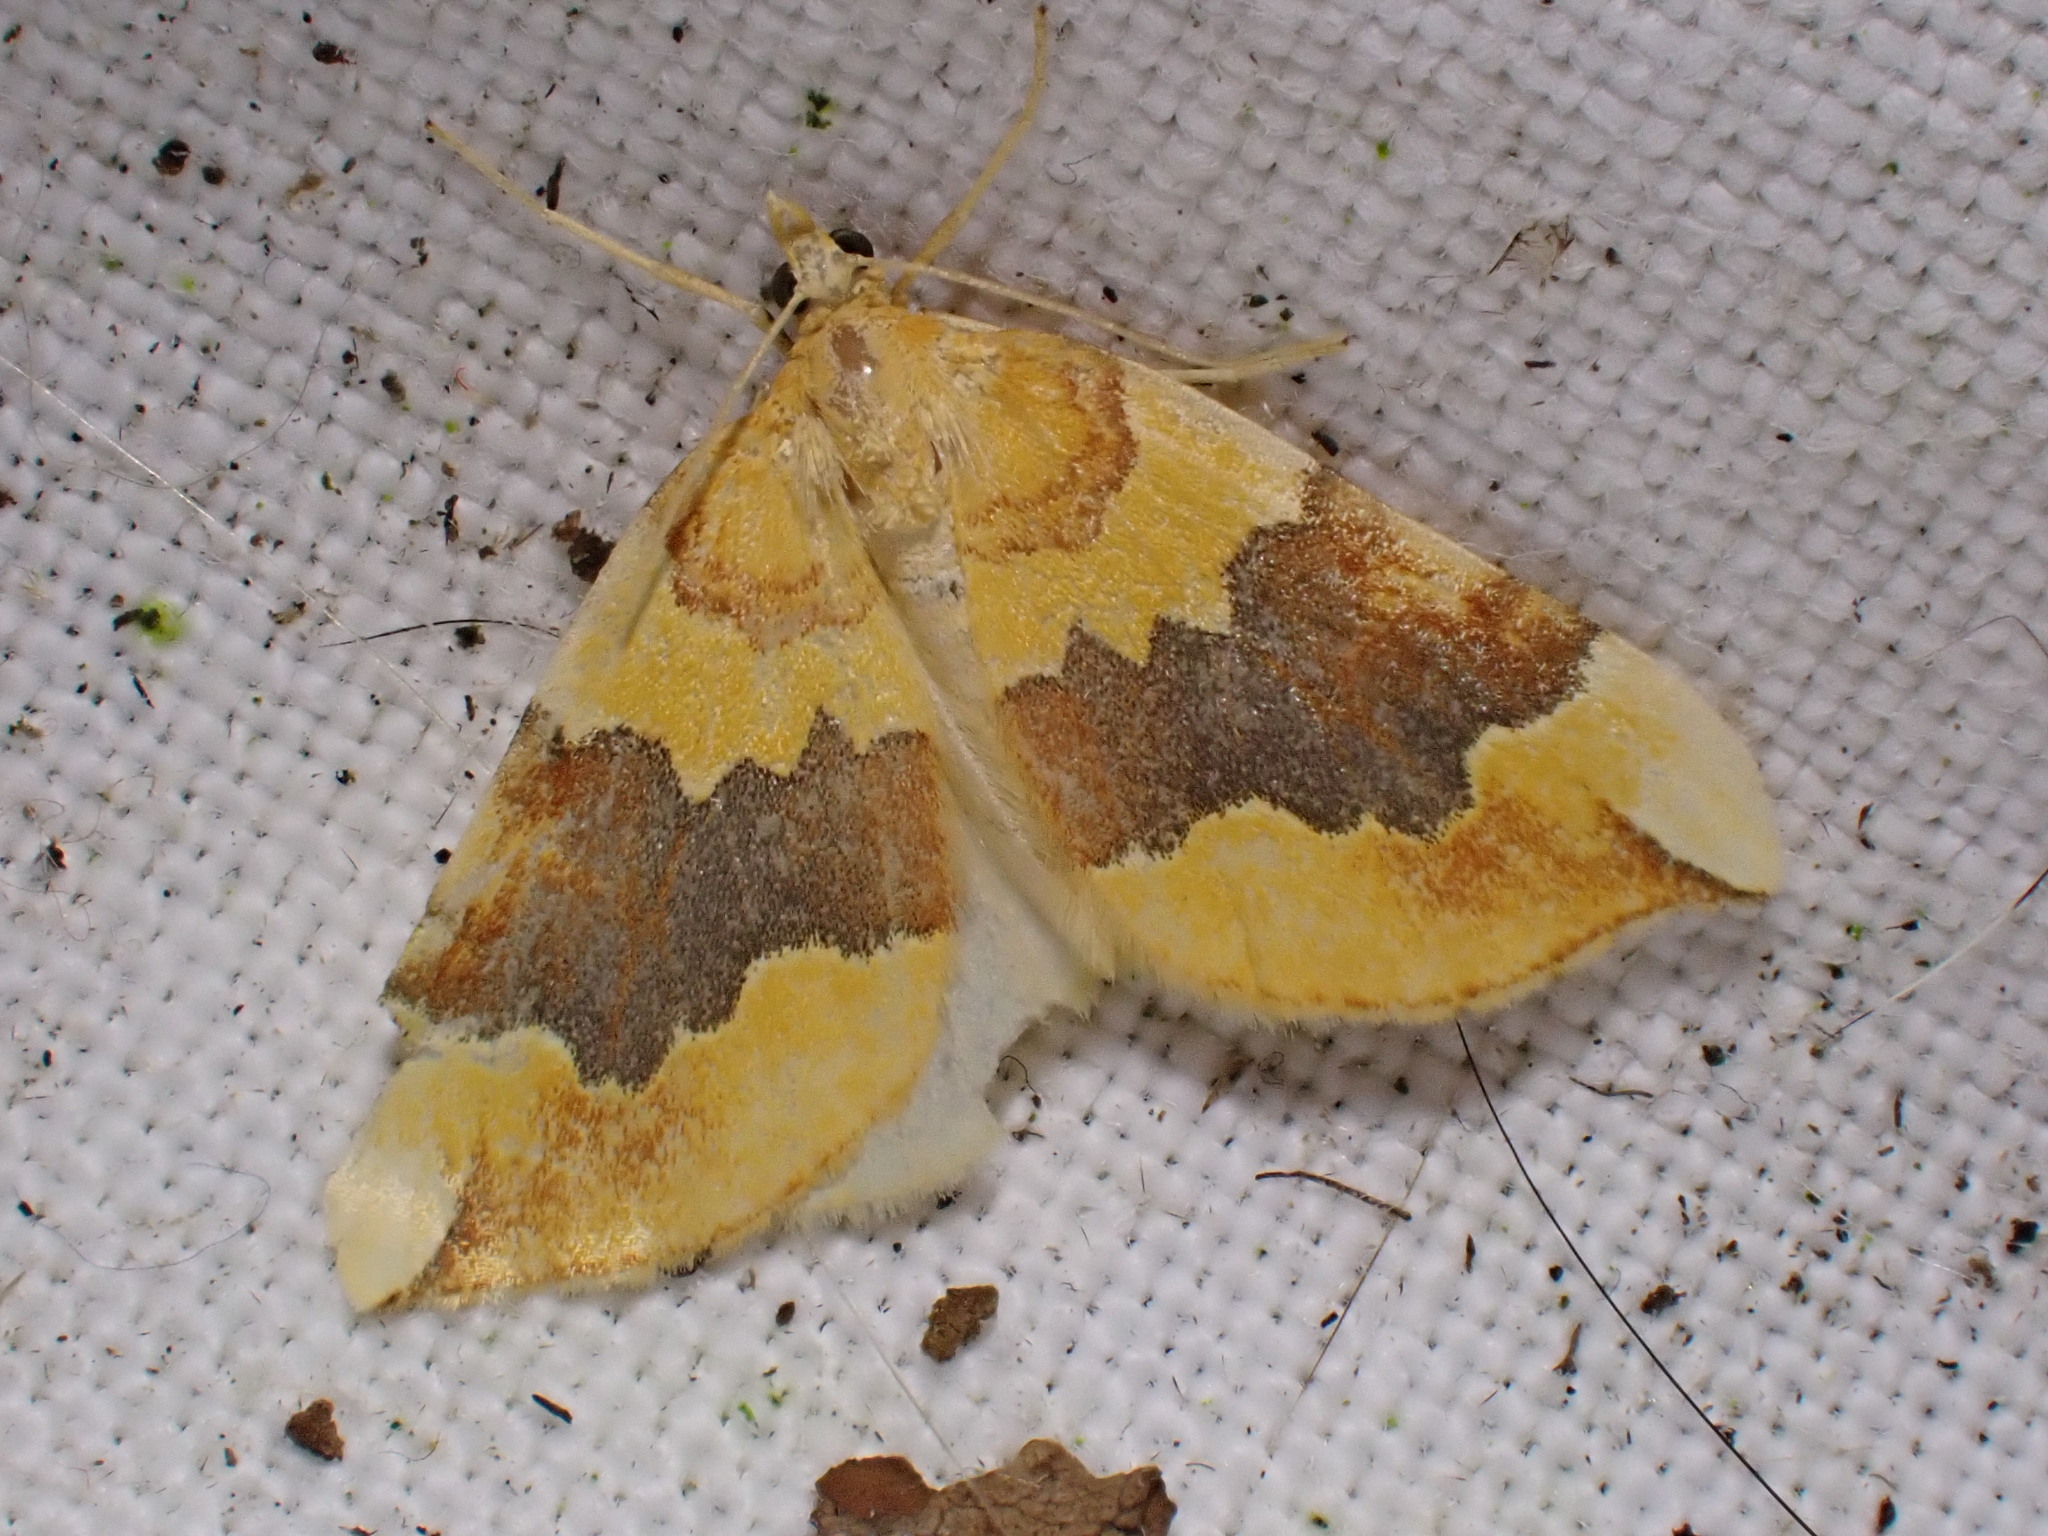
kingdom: Animalia
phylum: Arthropoda
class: Insecta
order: Lepidoptera
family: Geometridae
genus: Cidaria
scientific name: Cidaria fulvata
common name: Barred yellow
